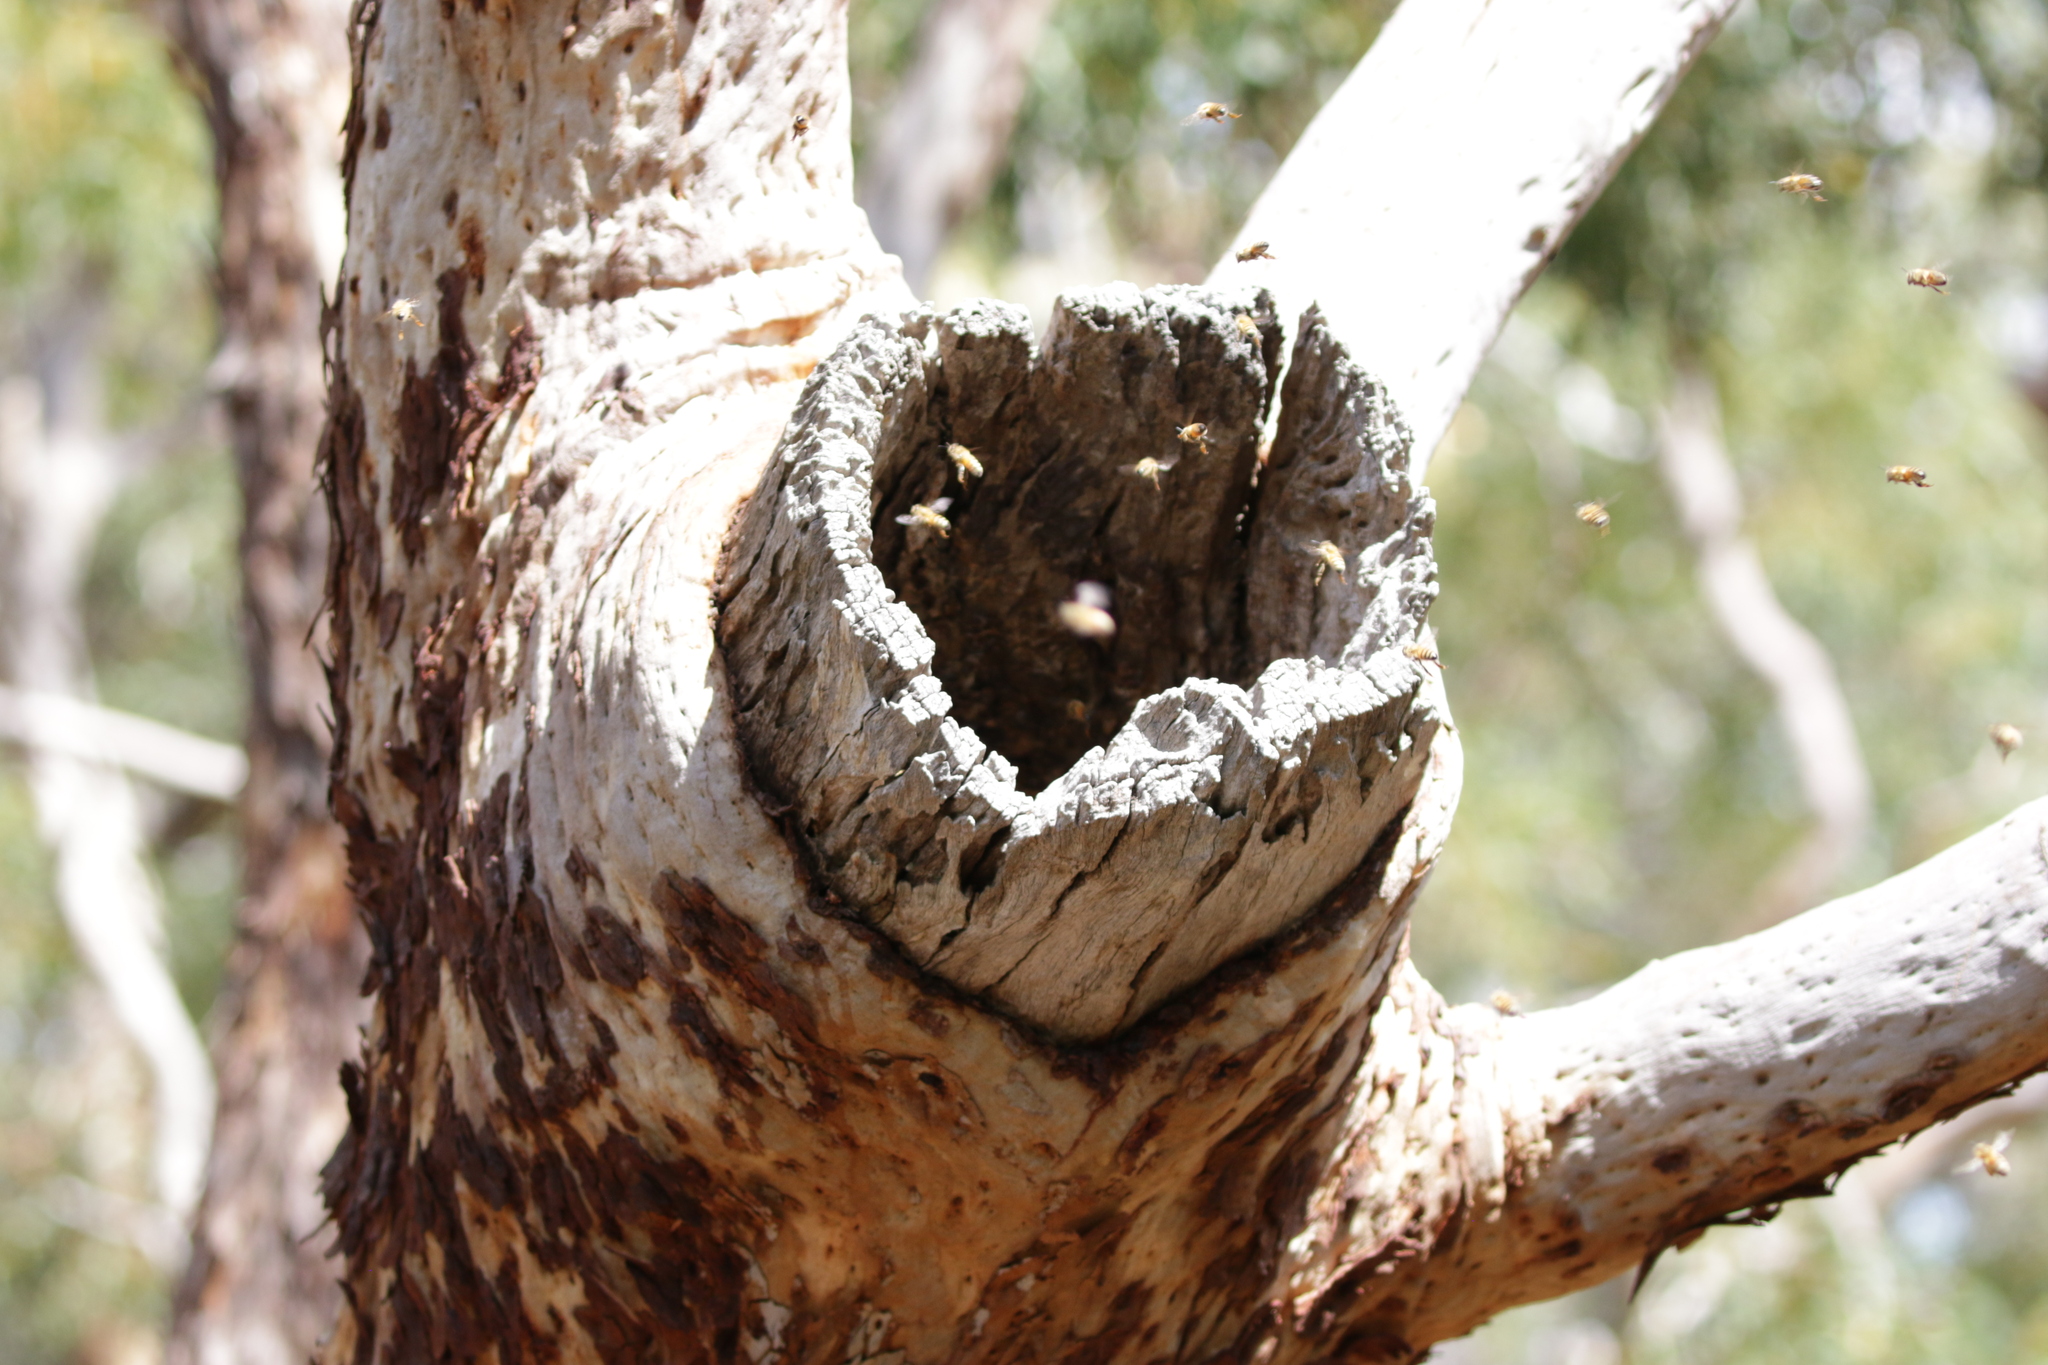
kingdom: Animalia
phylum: Arthropoda
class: Insecta
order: Hymenoptera
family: Apidae
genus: Apis
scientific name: Apis mellifera
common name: Honey bee
